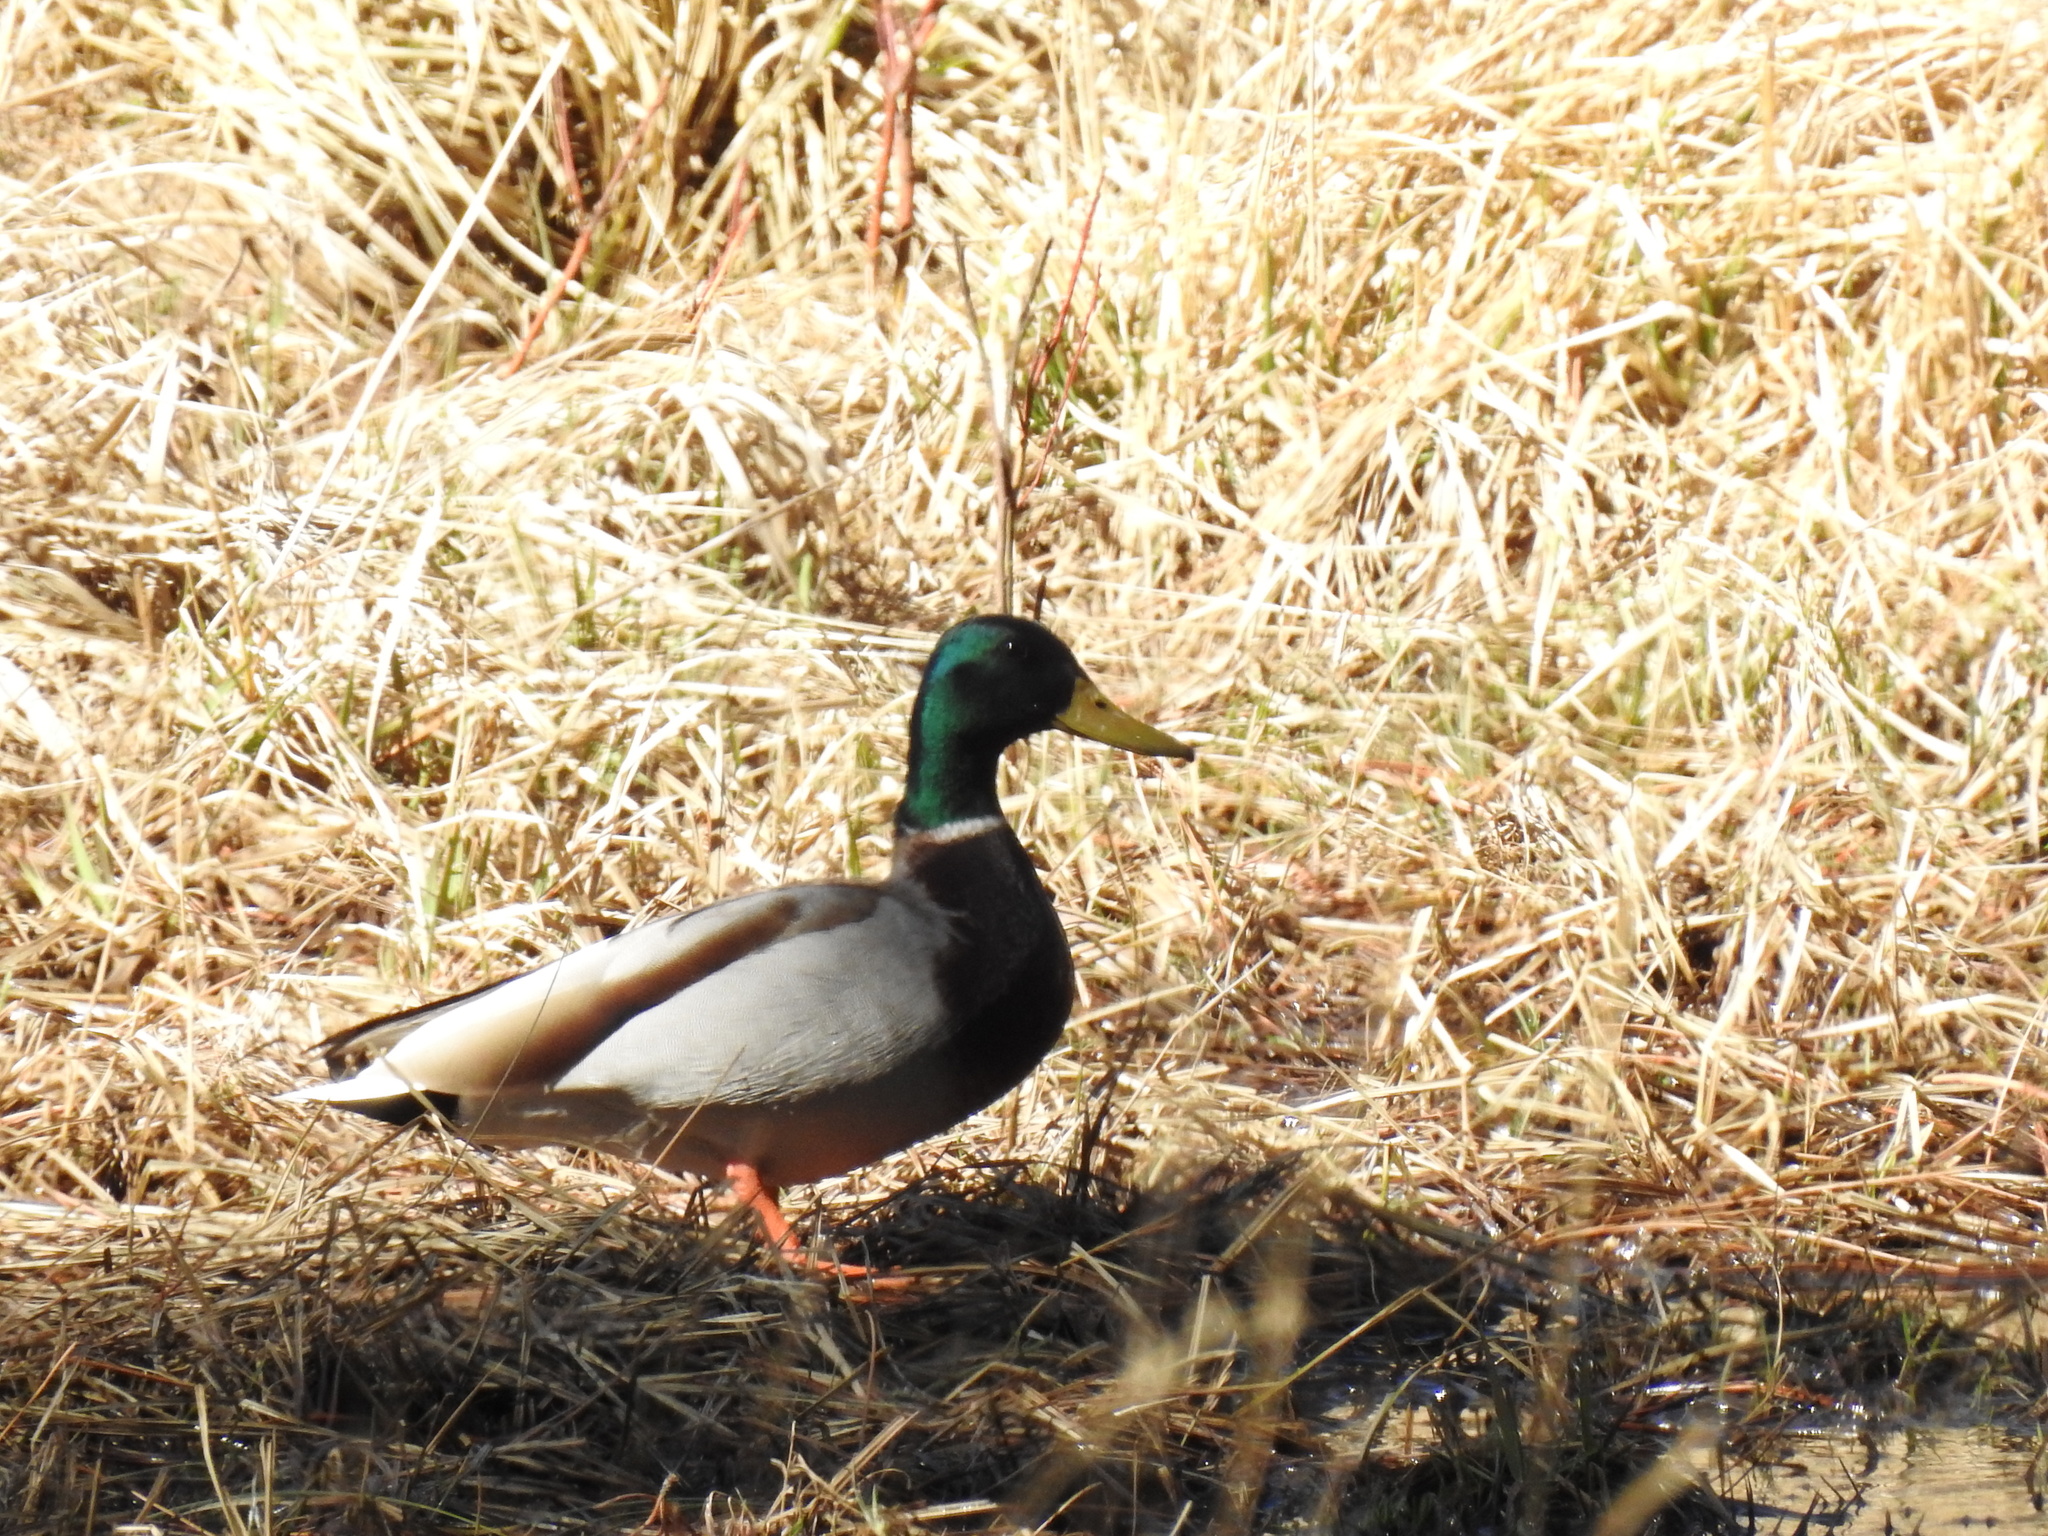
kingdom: Animalia
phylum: Chordata
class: Aves
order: Anseriformes
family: Anatidae
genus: Anas
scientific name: Anas platyrhynchos
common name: Mallard
